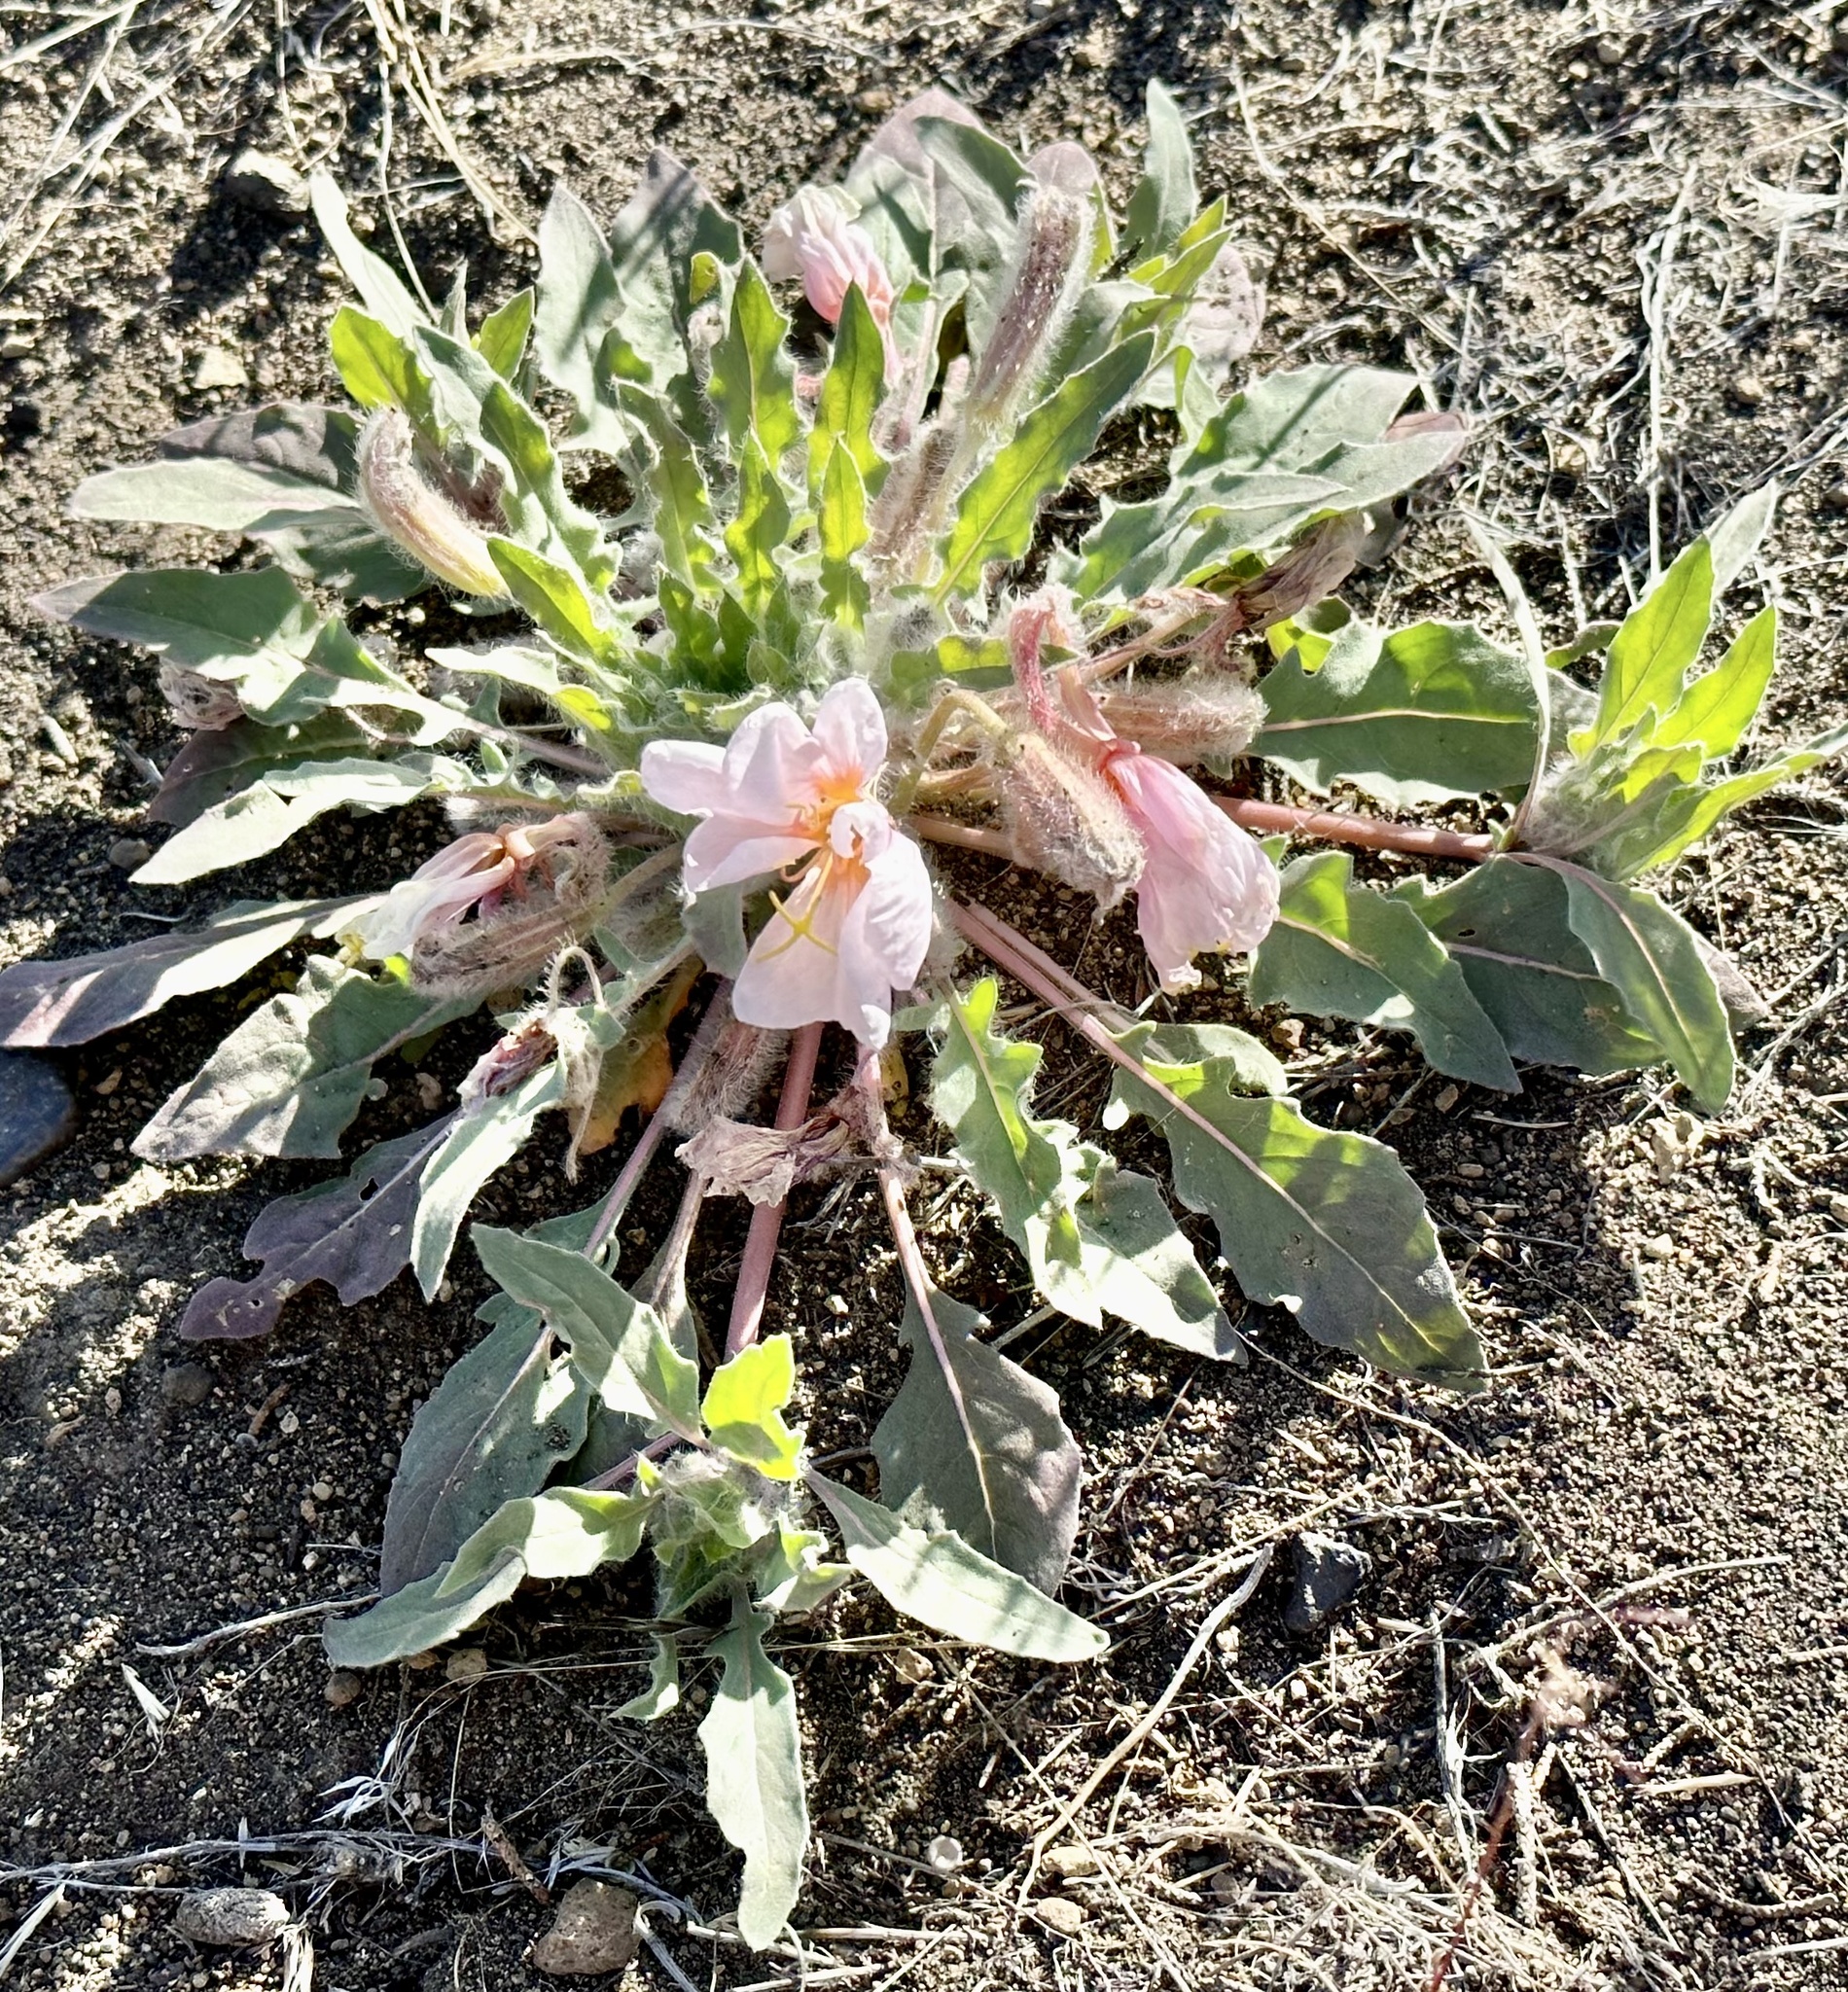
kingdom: Plantae
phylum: Tracheophyta
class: Magnoliopsida
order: Myrtales
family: Onagraceae
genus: Oenothera
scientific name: Oenothera cespitosa
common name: Tufted evening-primrose
